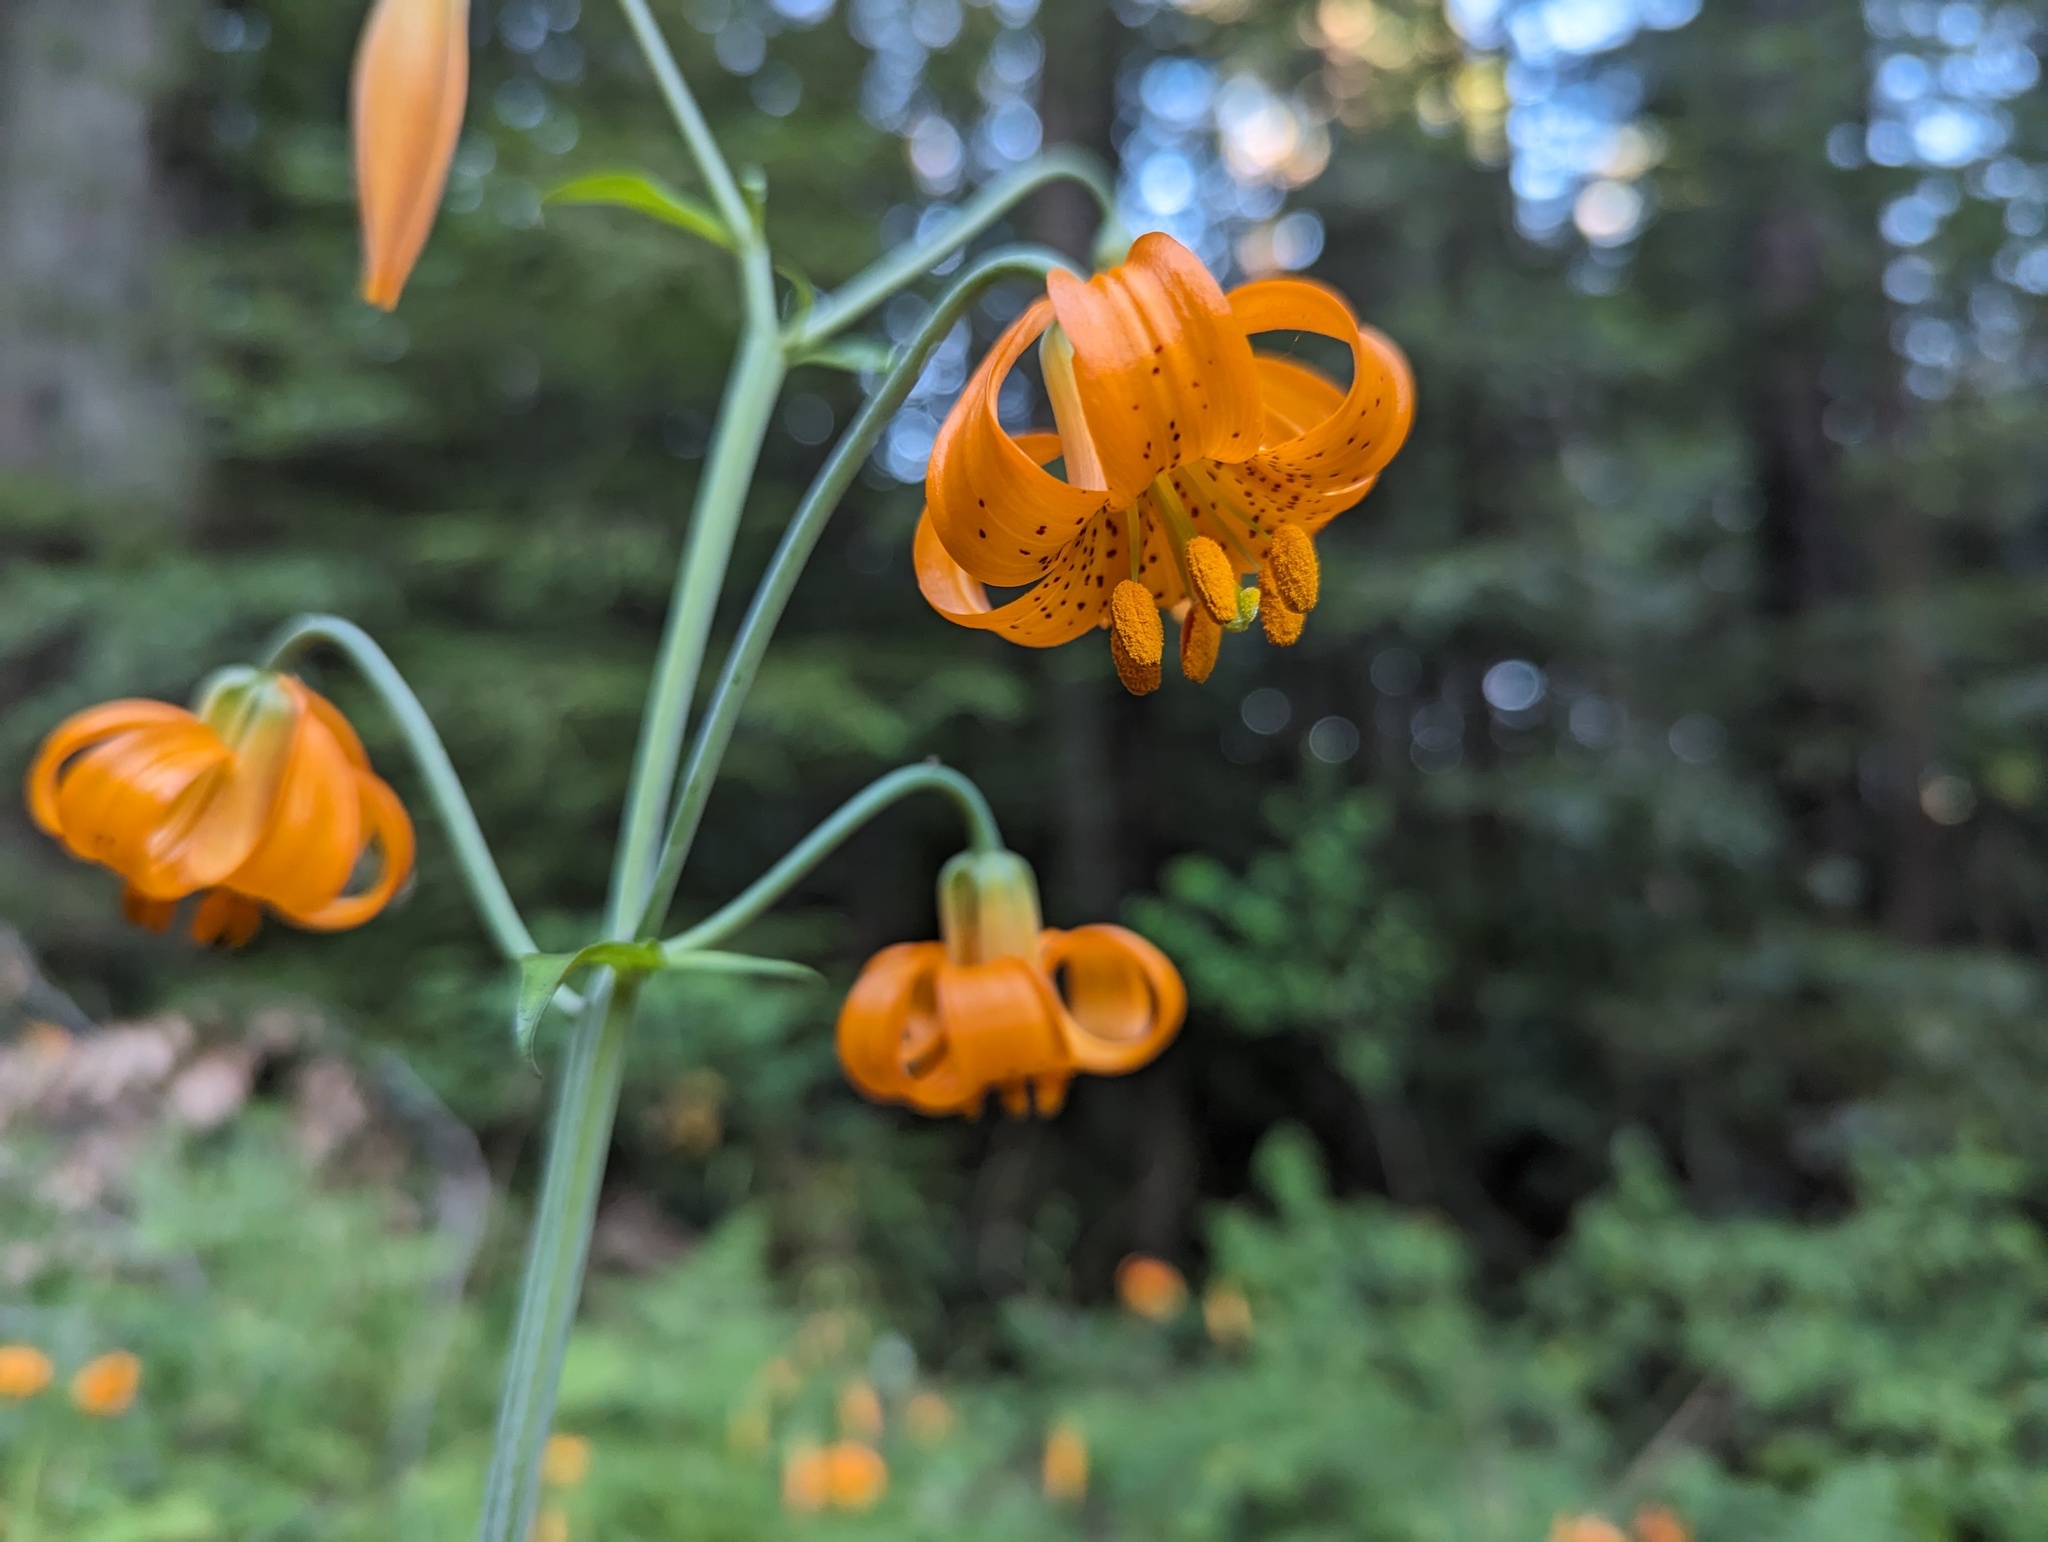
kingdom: Plantae
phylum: Tracheophyta
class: Liliopsida
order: Liliales
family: Liliaceae
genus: Lilium
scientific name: Lilium columbianum
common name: Columbia lily
